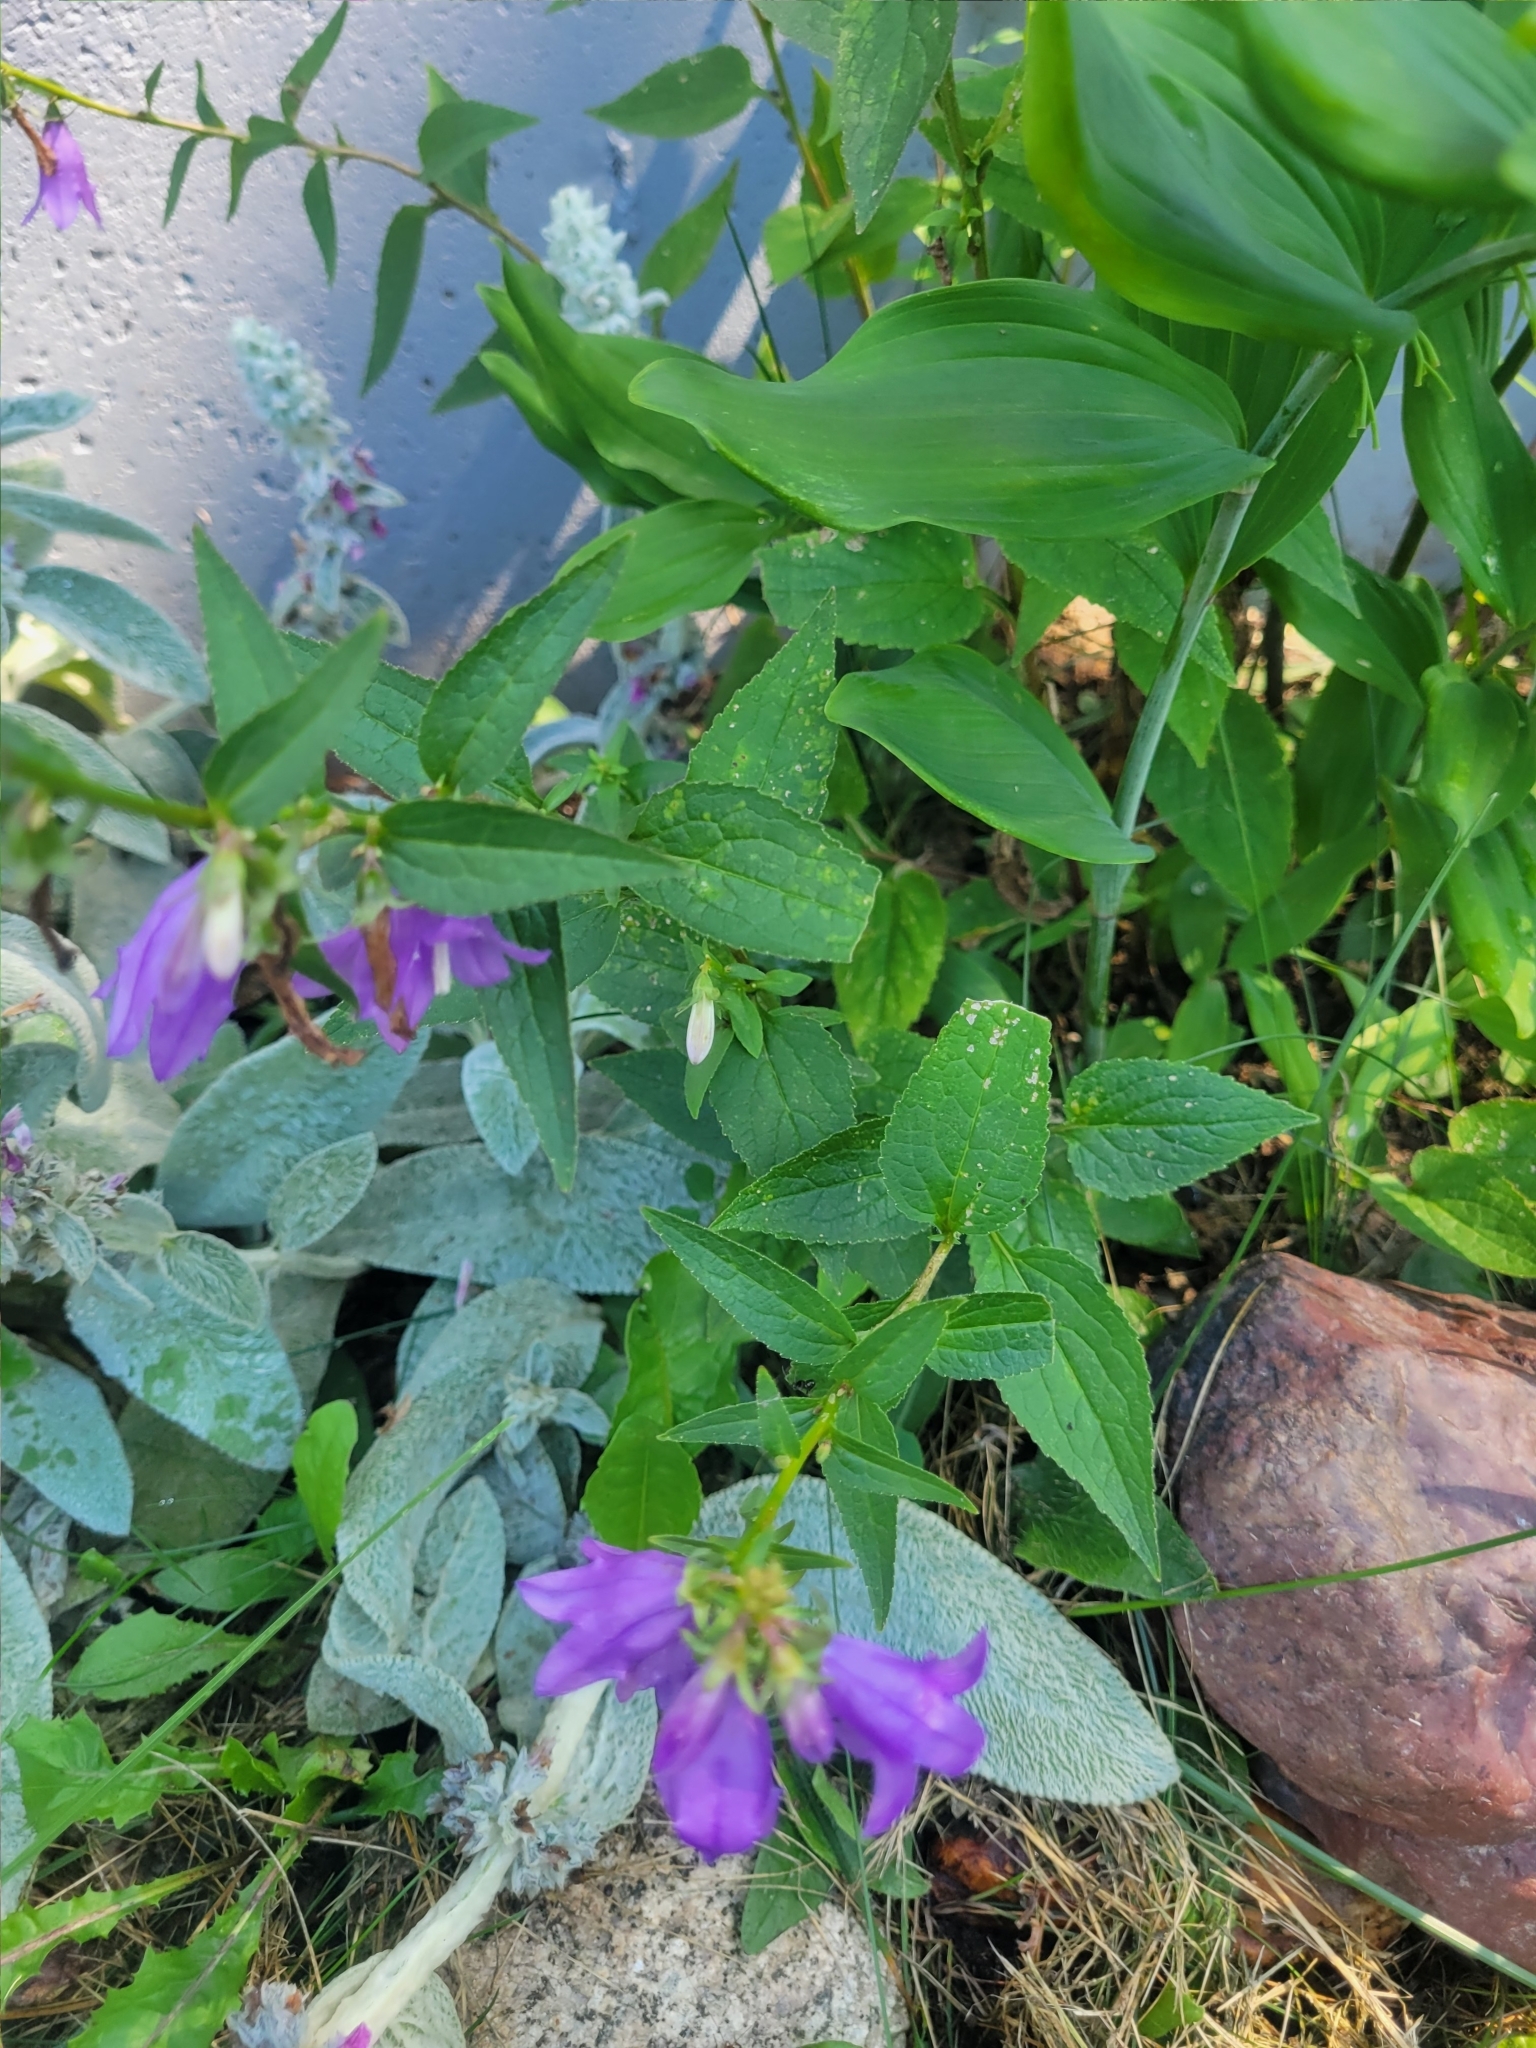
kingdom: Plantae
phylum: Tracheophyta
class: Magnoliopsida
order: Asterales
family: Campanulaceae
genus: Campanula
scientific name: Campanula rapunculoides
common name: Creeping bellflower
